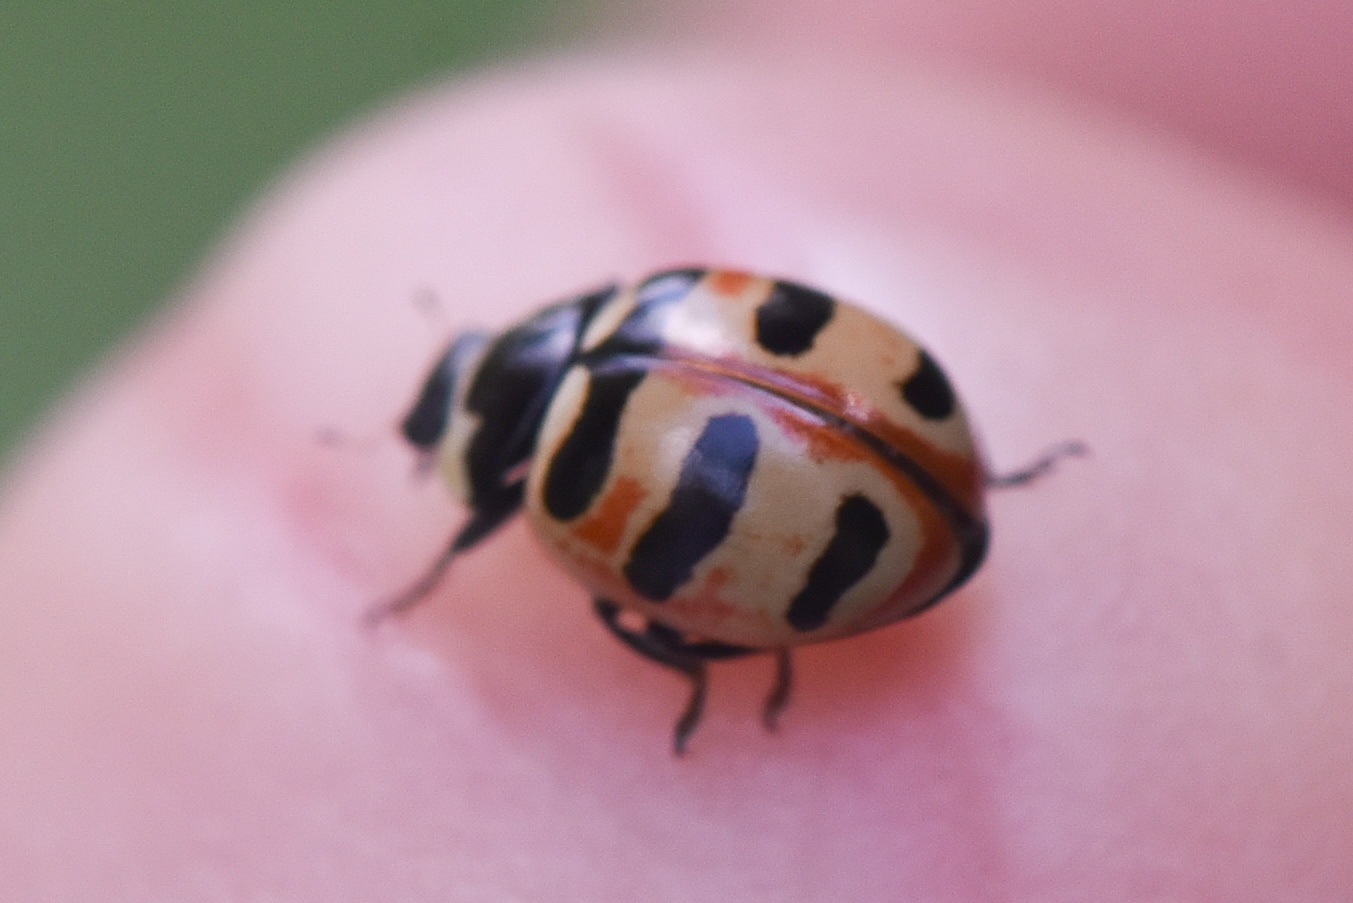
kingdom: Animalia
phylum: Arthropoda
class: Insecta
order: Coleoptera
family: Coccinellidae
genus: Coccinella
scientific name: Coccinella trifasciata
